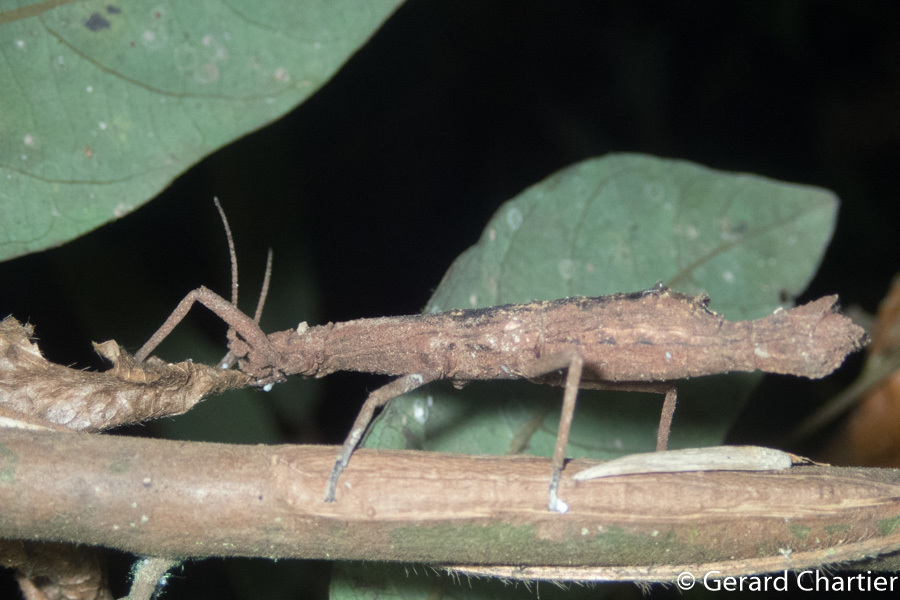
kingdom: Animalia
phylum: Arthropoda
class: Insecta
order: Phasmida
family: Heteropterygidae
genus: Orestes
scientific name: Orestes mouhotii
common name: Small cigar stick insect
